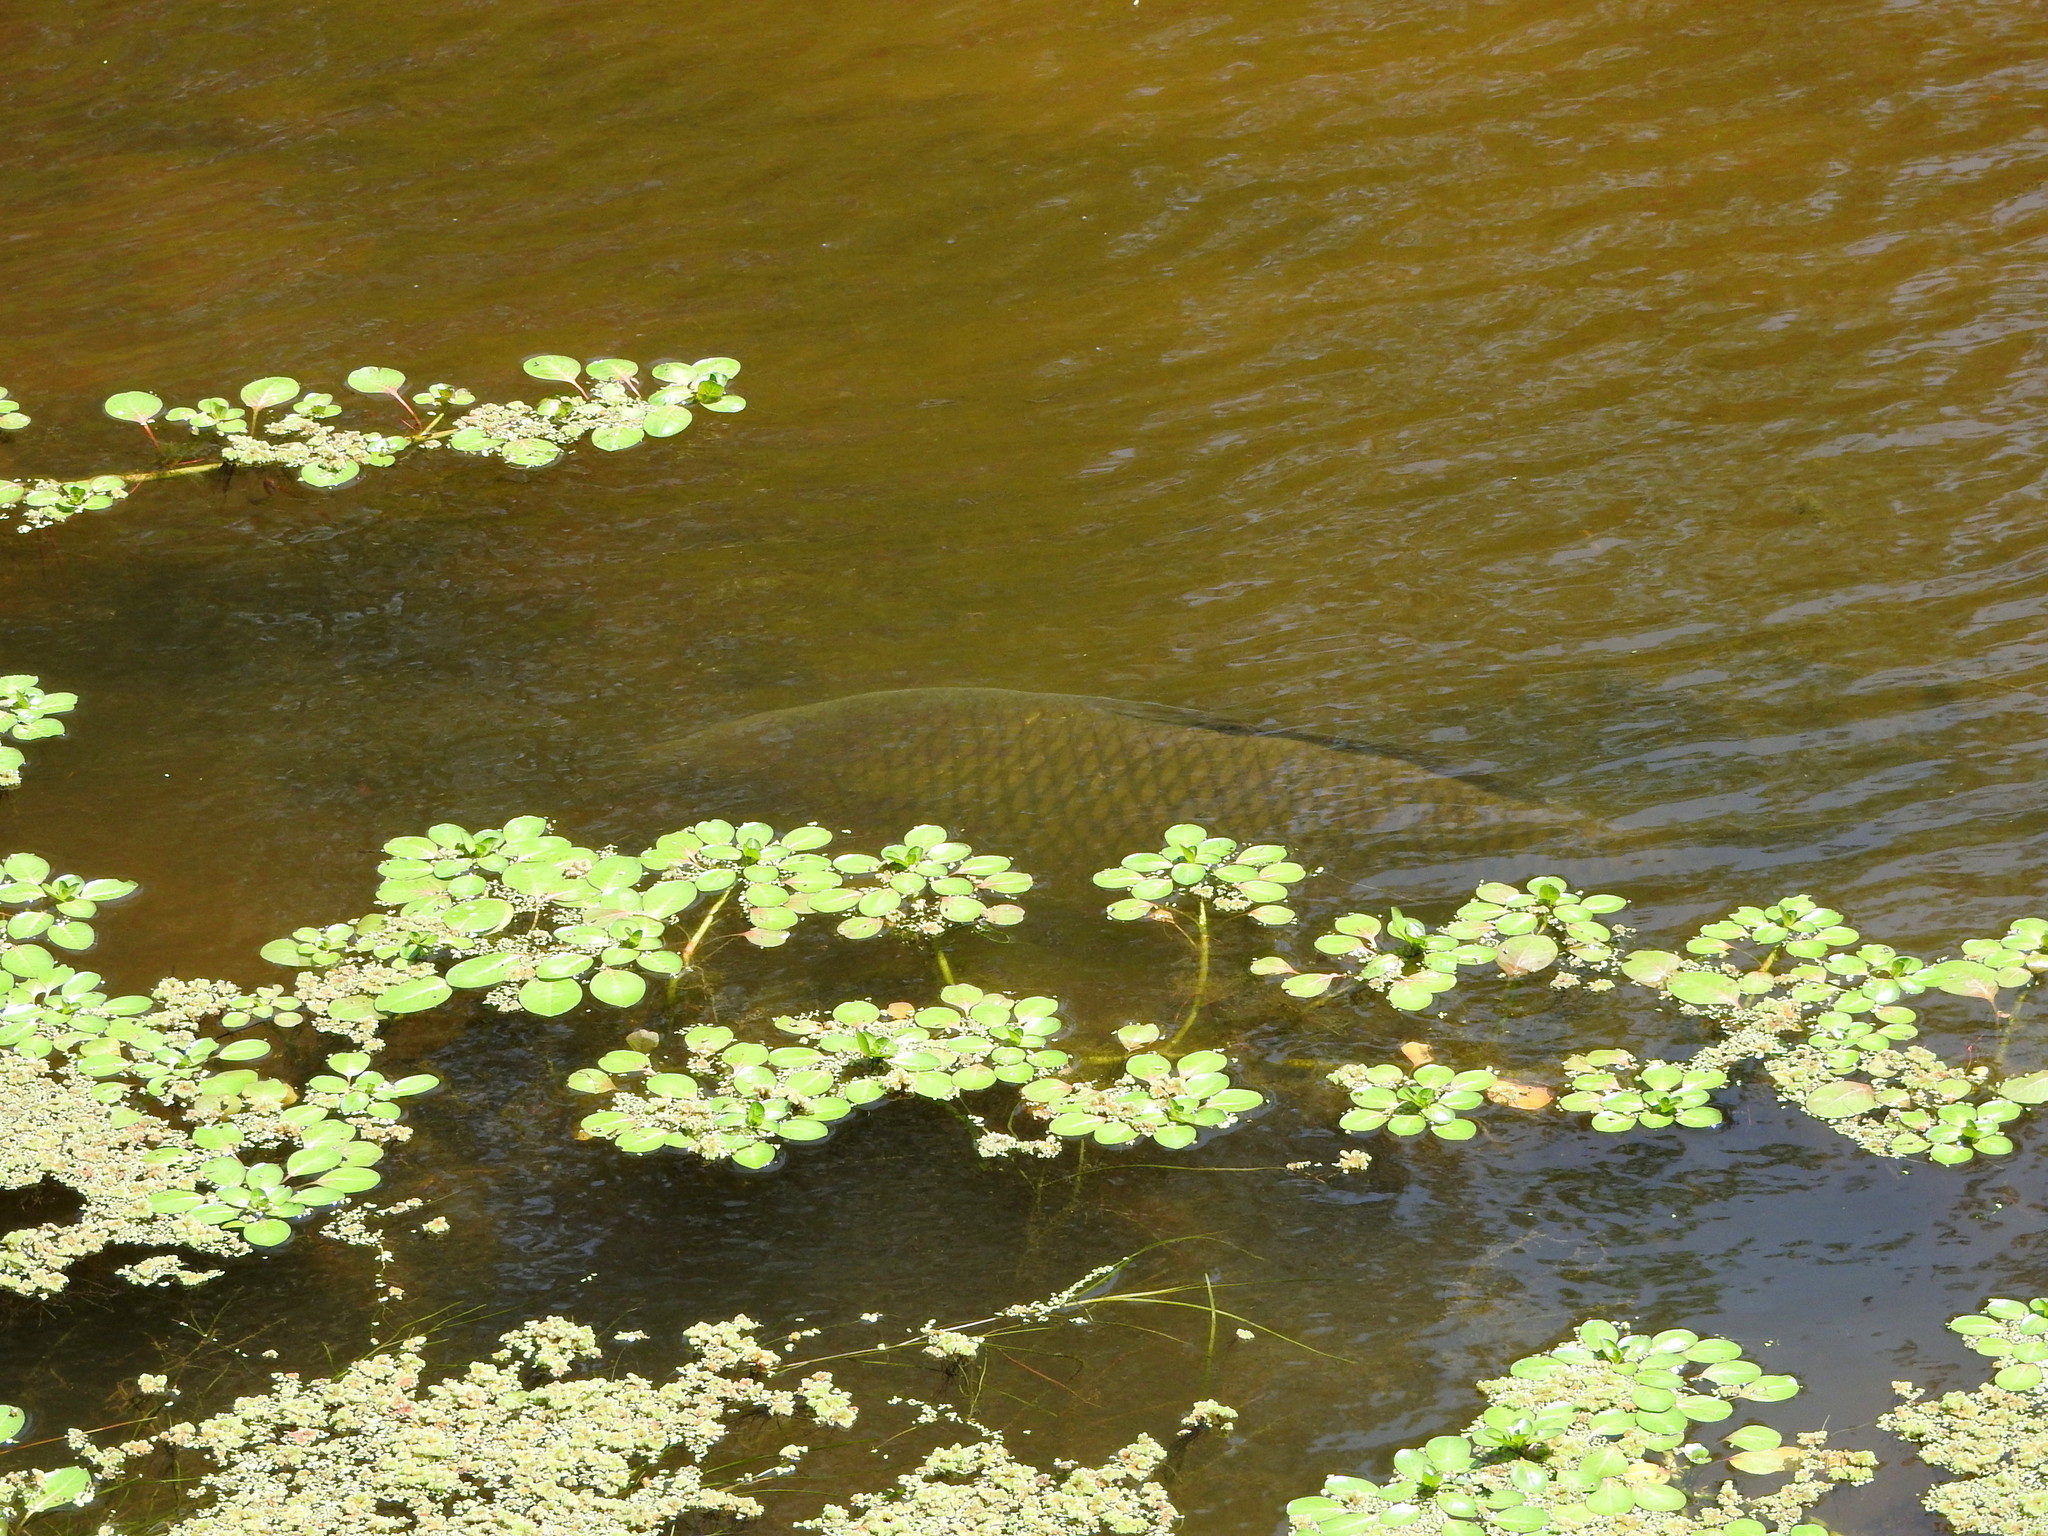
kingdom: Animalia
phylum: Chordata
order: Cypriniformes
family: Cyprinidae
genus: Cyprinus
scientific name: Cyprinus carpio
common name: Common carp
